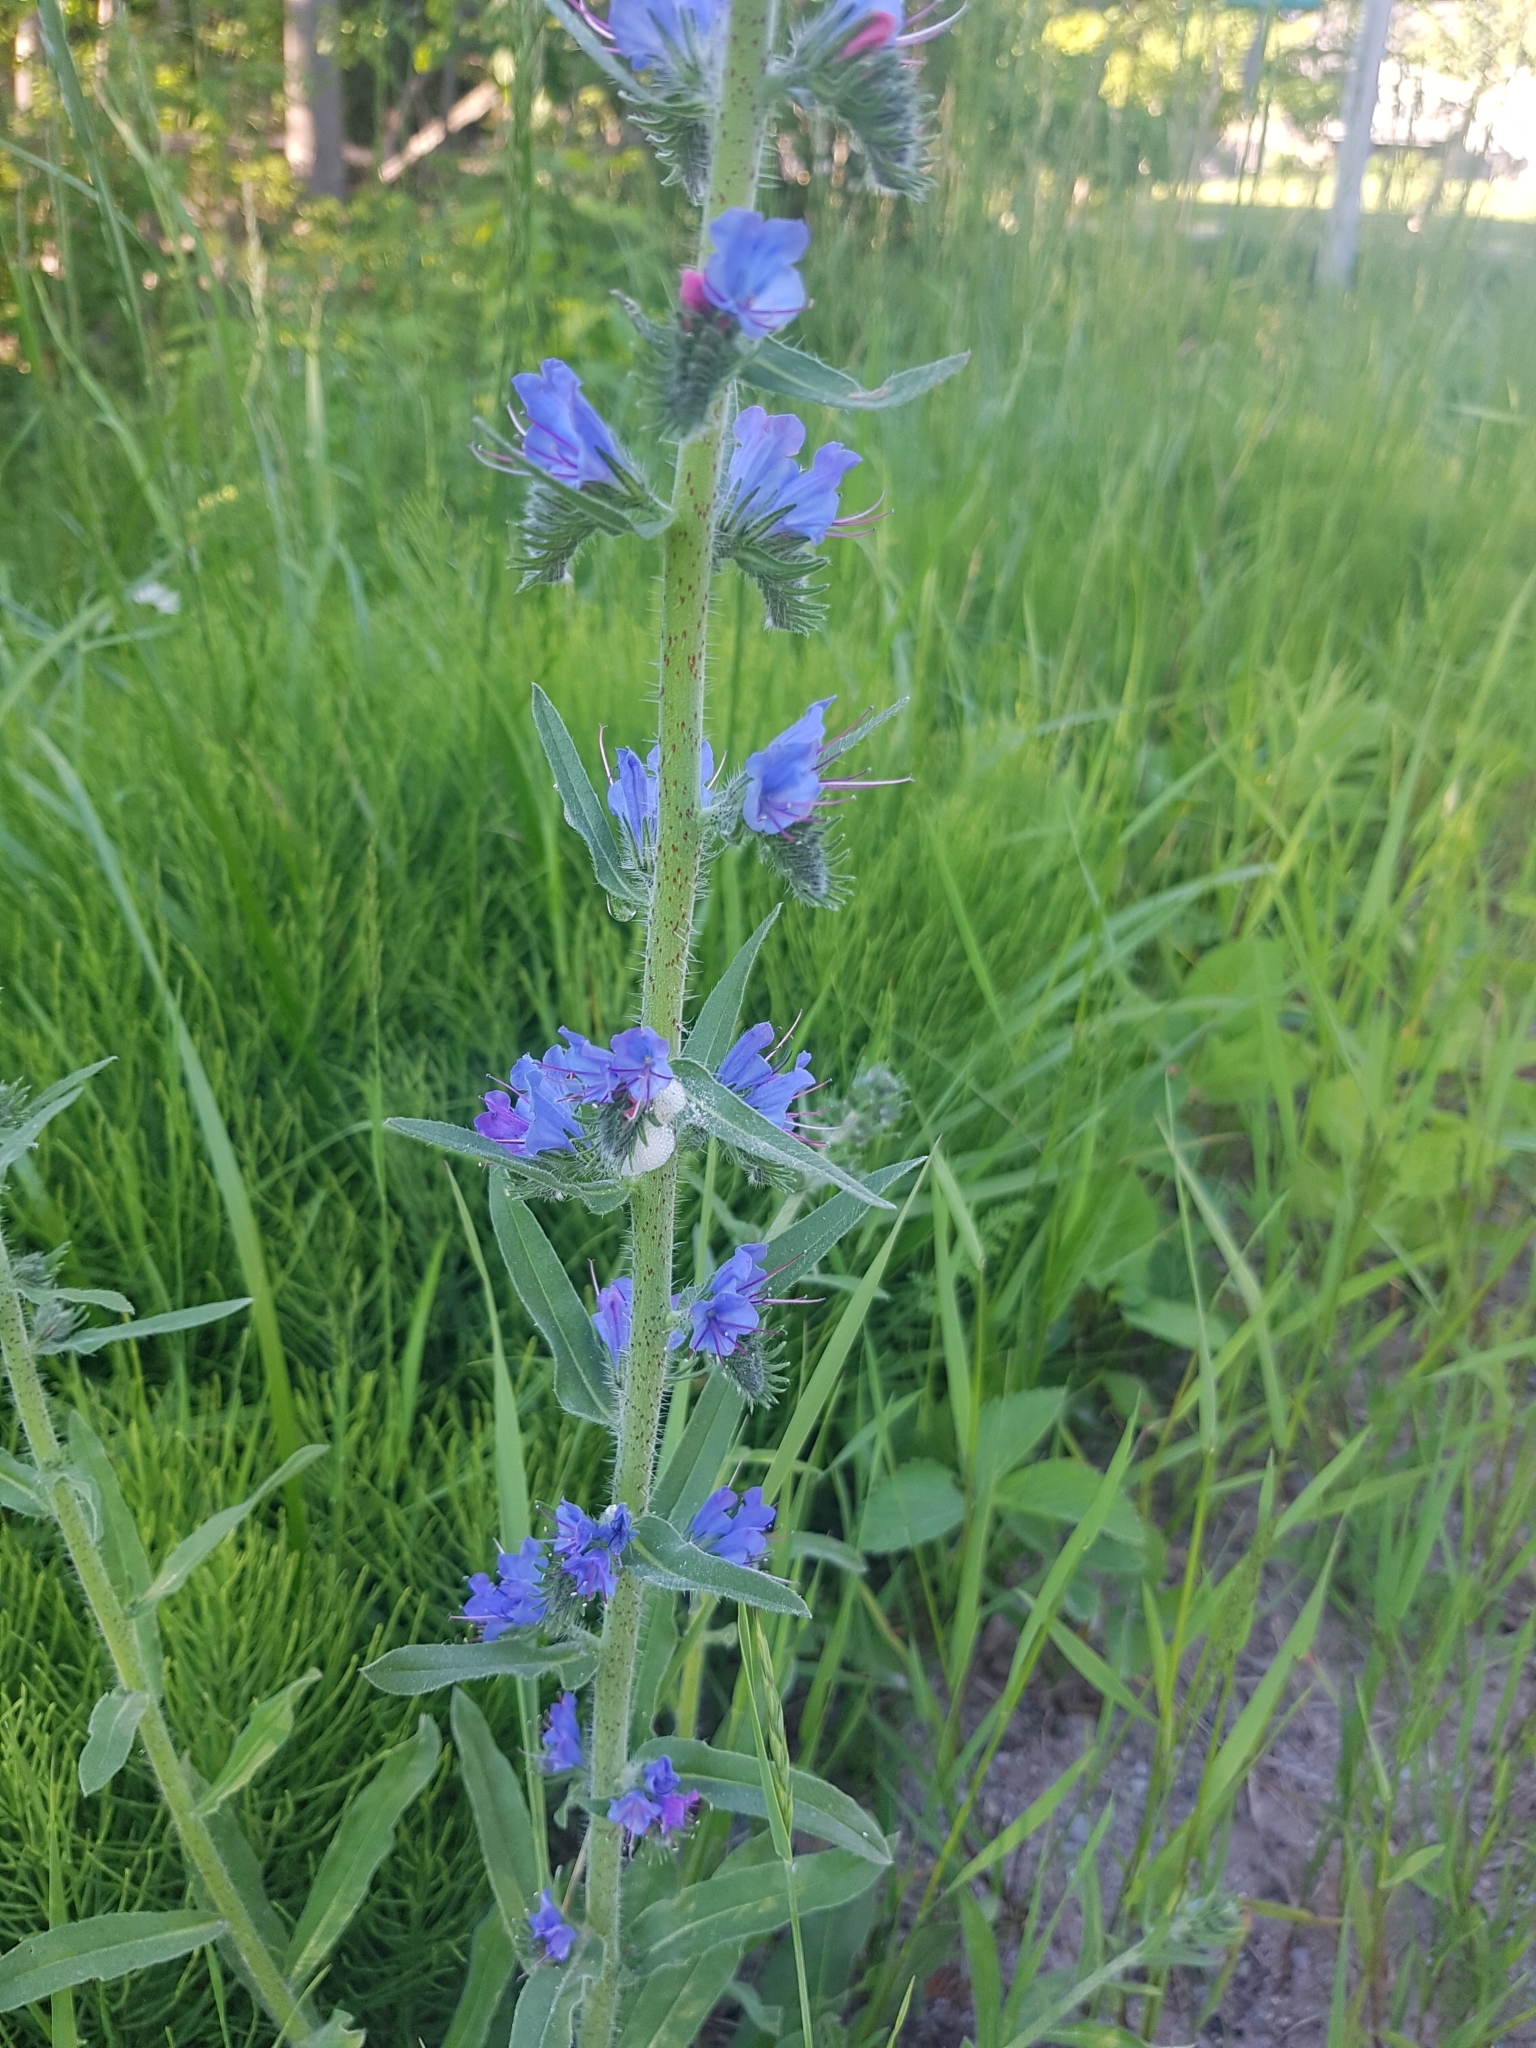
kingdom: Plantae
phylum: Tracheophyta
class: Magnoliopsida
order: Boraginales
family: Boraginaceae
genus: Echium
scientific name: Echium vulgare
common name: Common viper's bugloss
